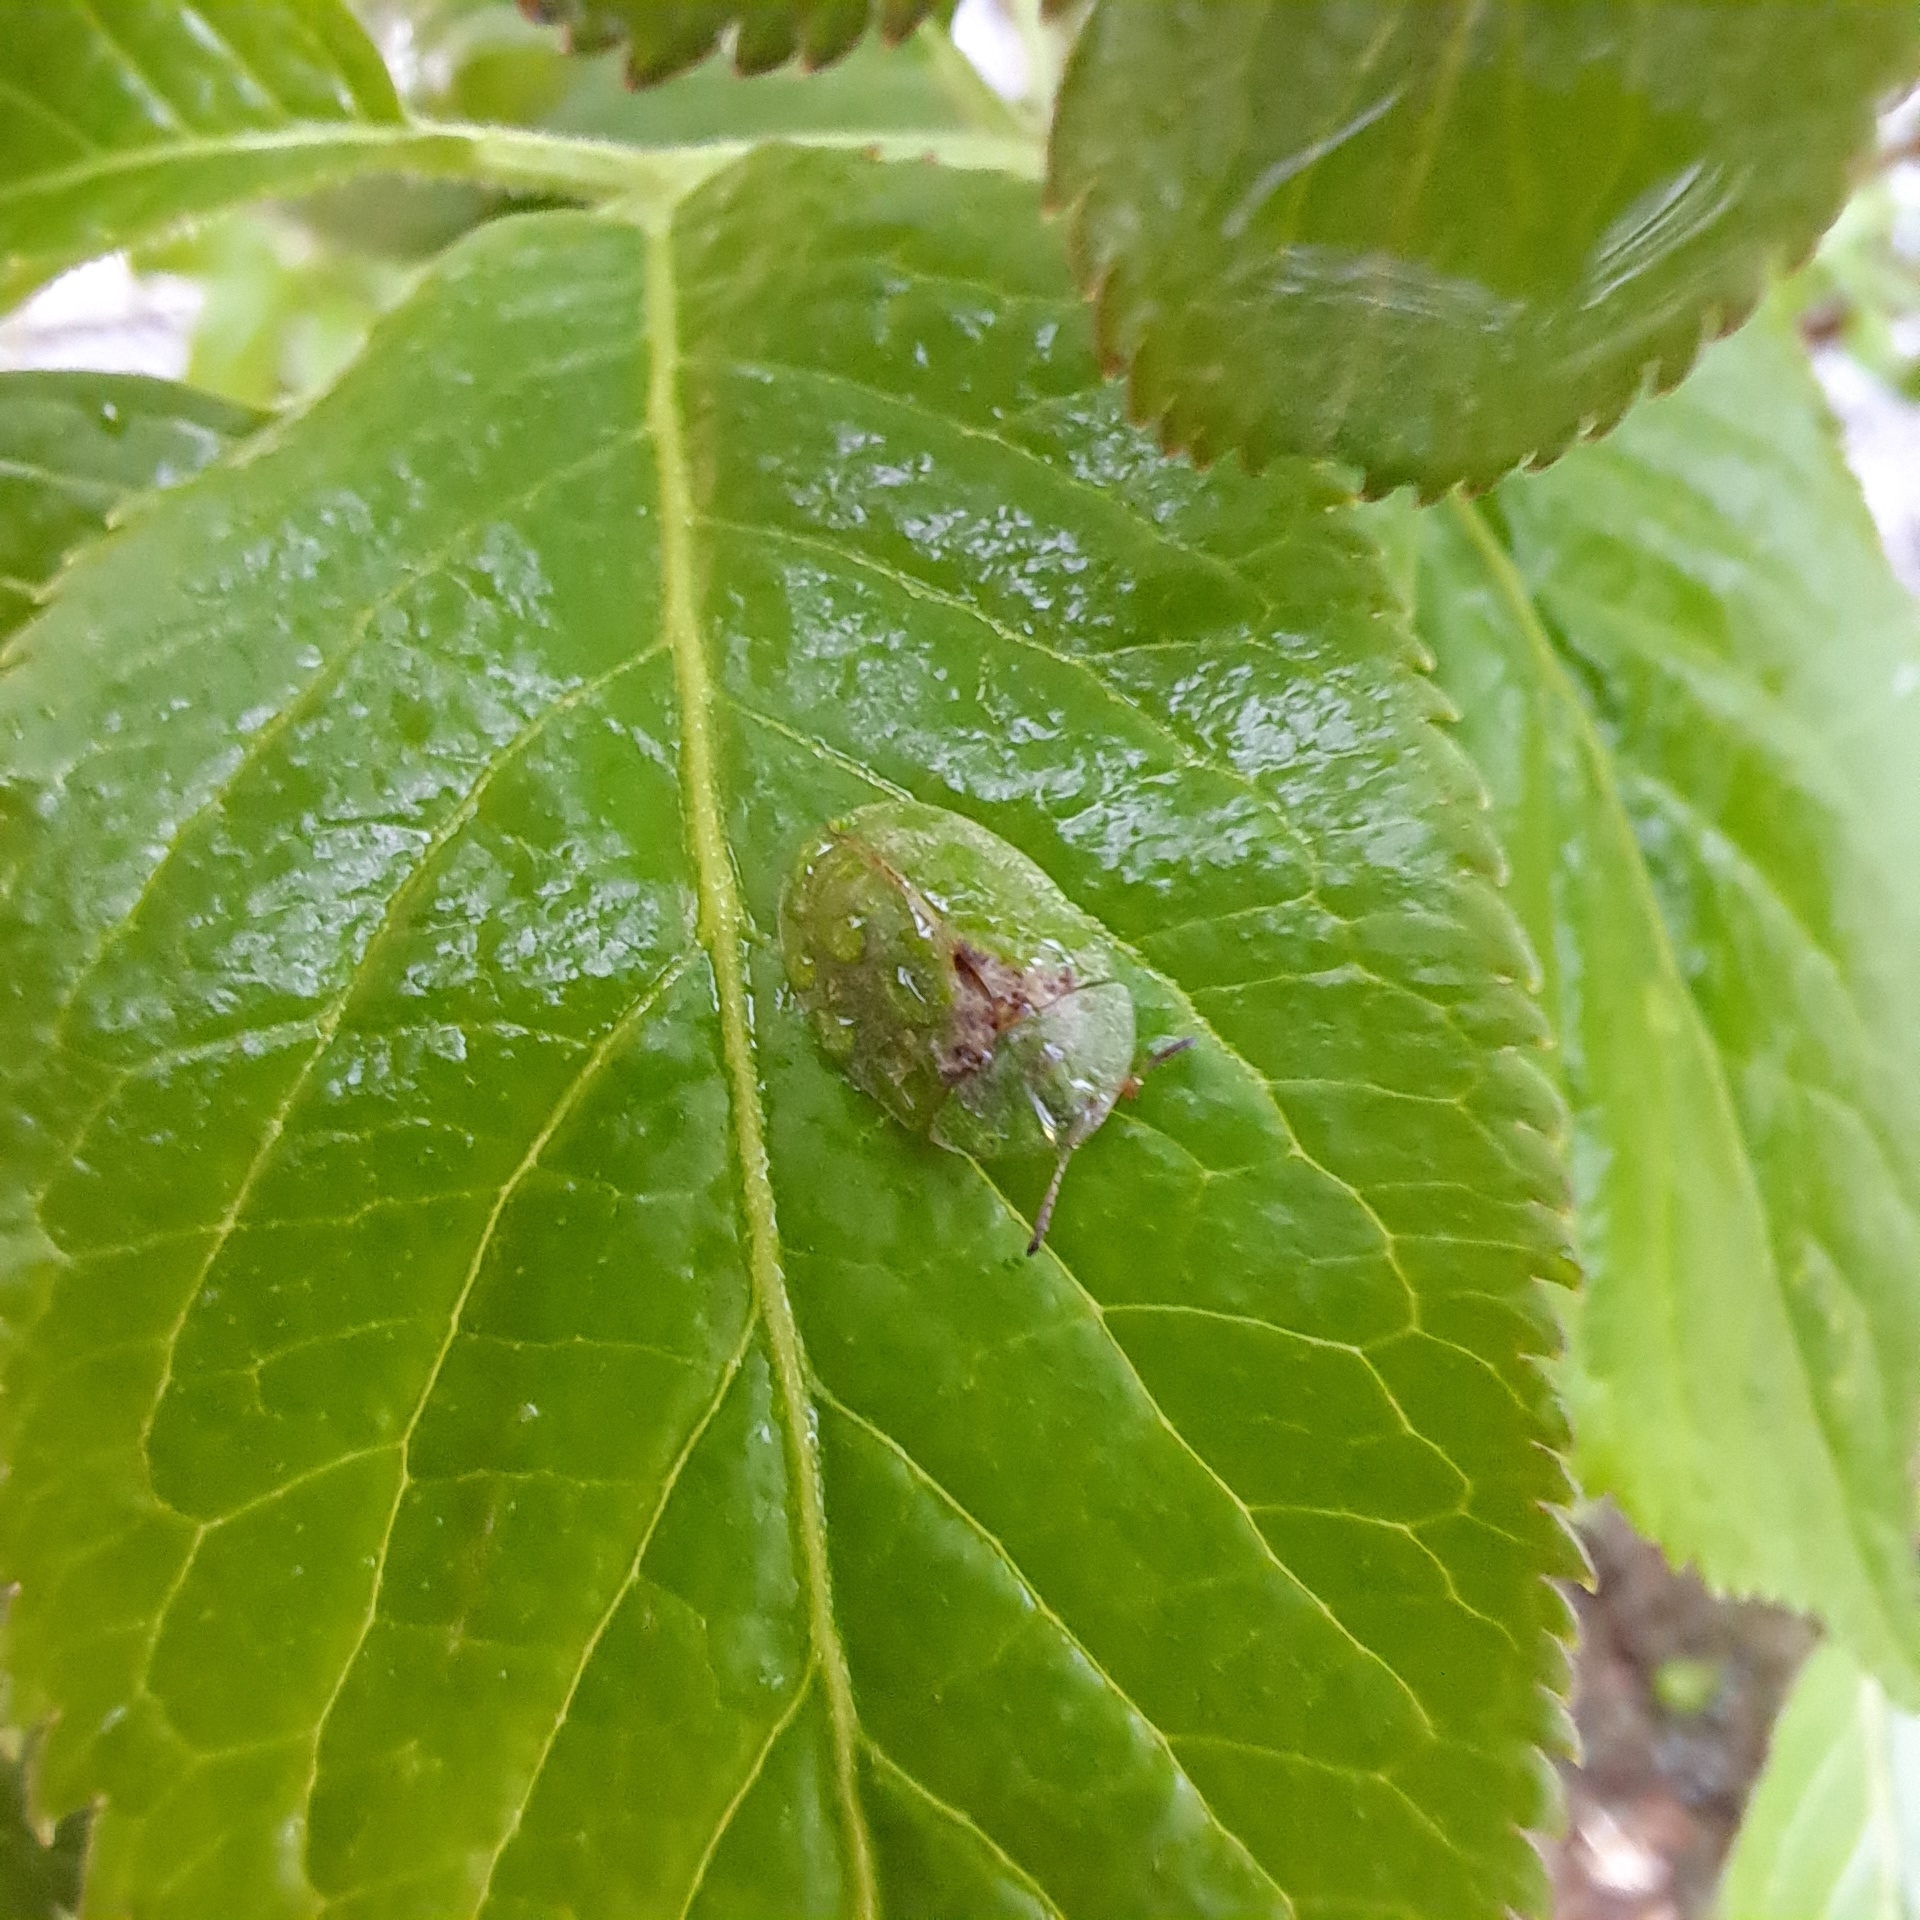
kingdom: Animalia
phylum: Arthropoda
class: Insecta
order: Coleoptera
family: Chrysomelidae
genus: Cassida
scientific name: Cassida rubiginosa
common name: Thistle tortoise beetle
